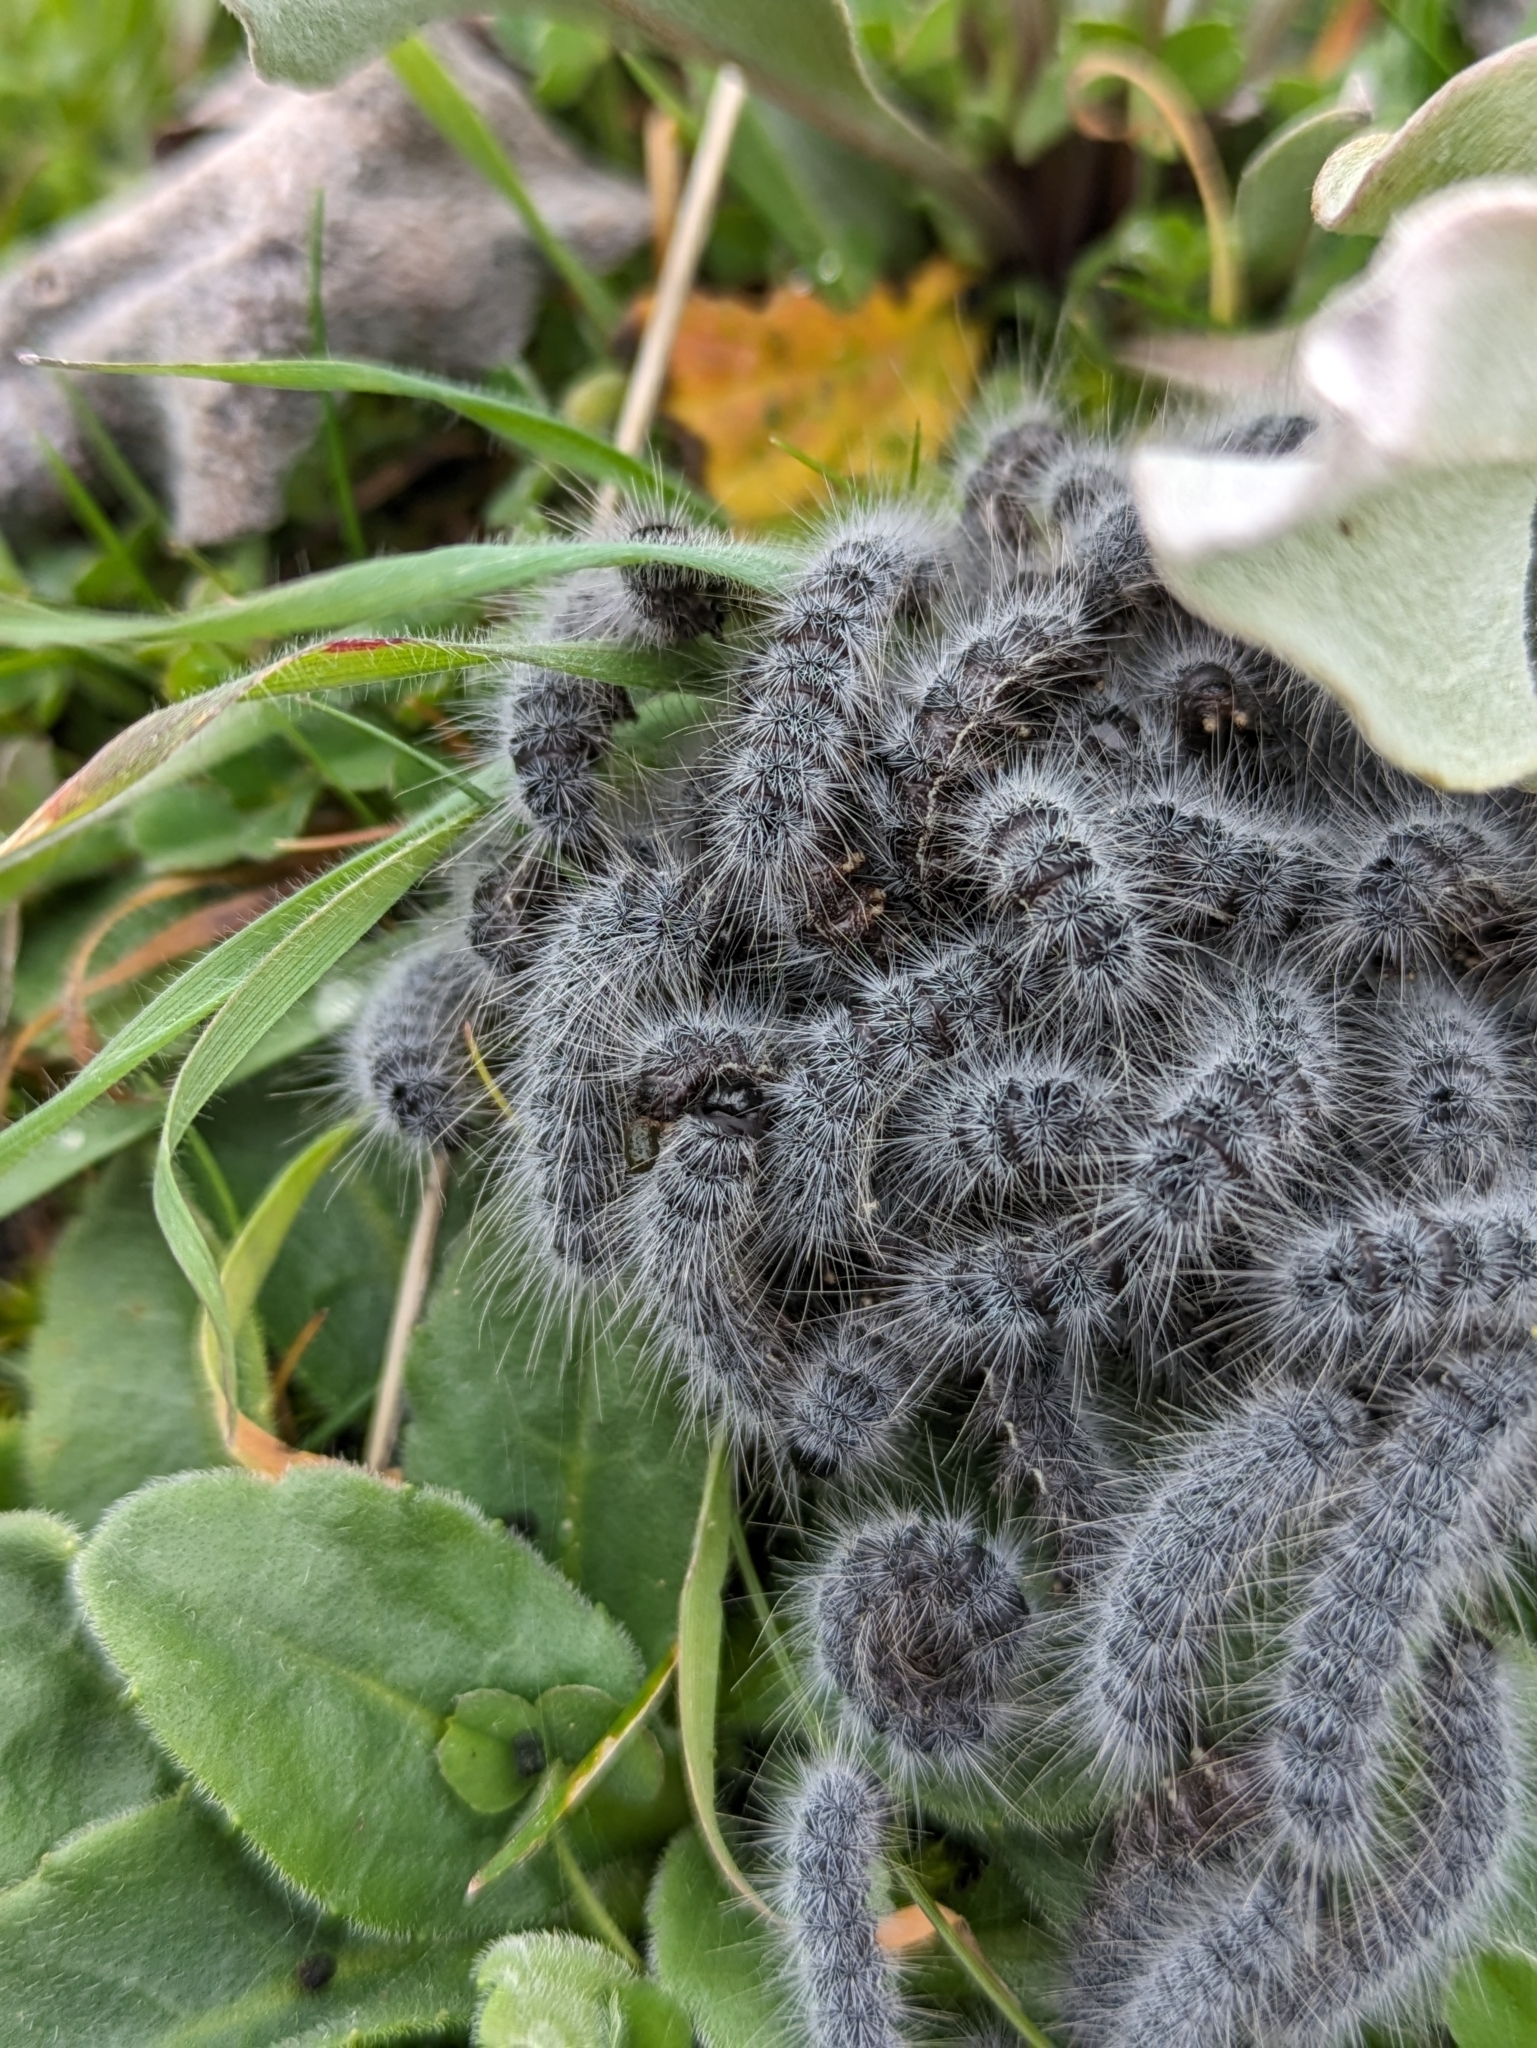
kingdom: Animalia
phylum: Arthropoda
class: Insecta
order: Lepidoptera
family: Notodontidae
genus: Thaumetopoea
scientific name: Thaumetopoea herculeana
